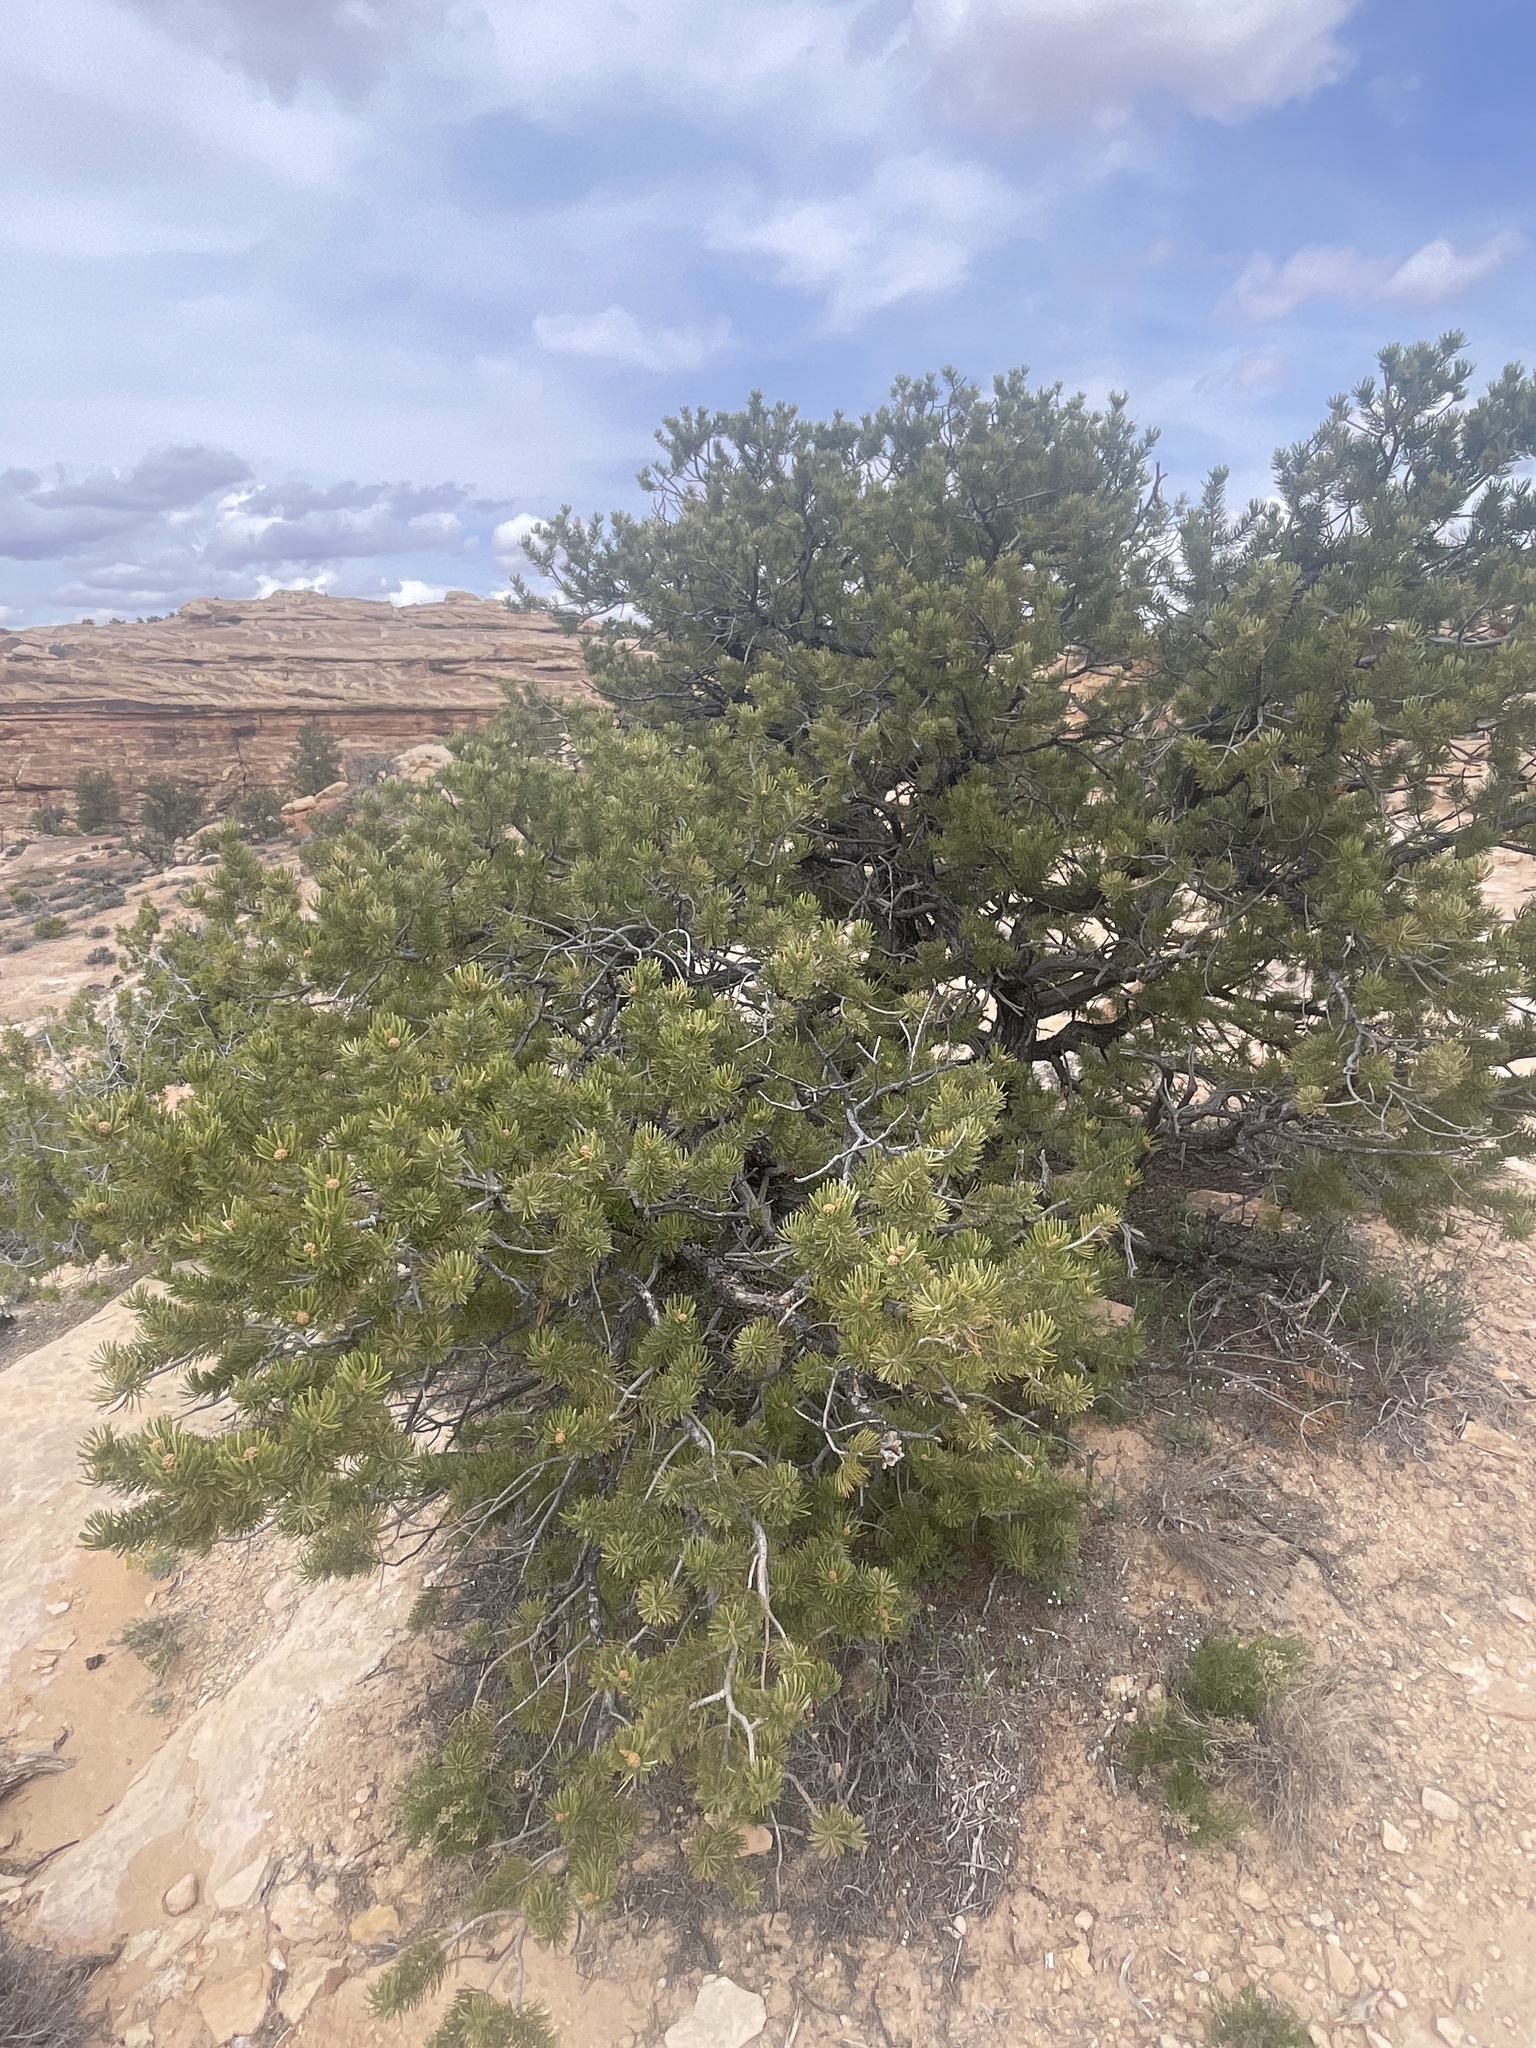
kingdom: Plantae
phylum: Tracheophyta
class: Pinopsida
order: Pinales
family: Pinaceae
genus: Pinus
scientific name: Pinus edulis
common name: Colorado pinyon
